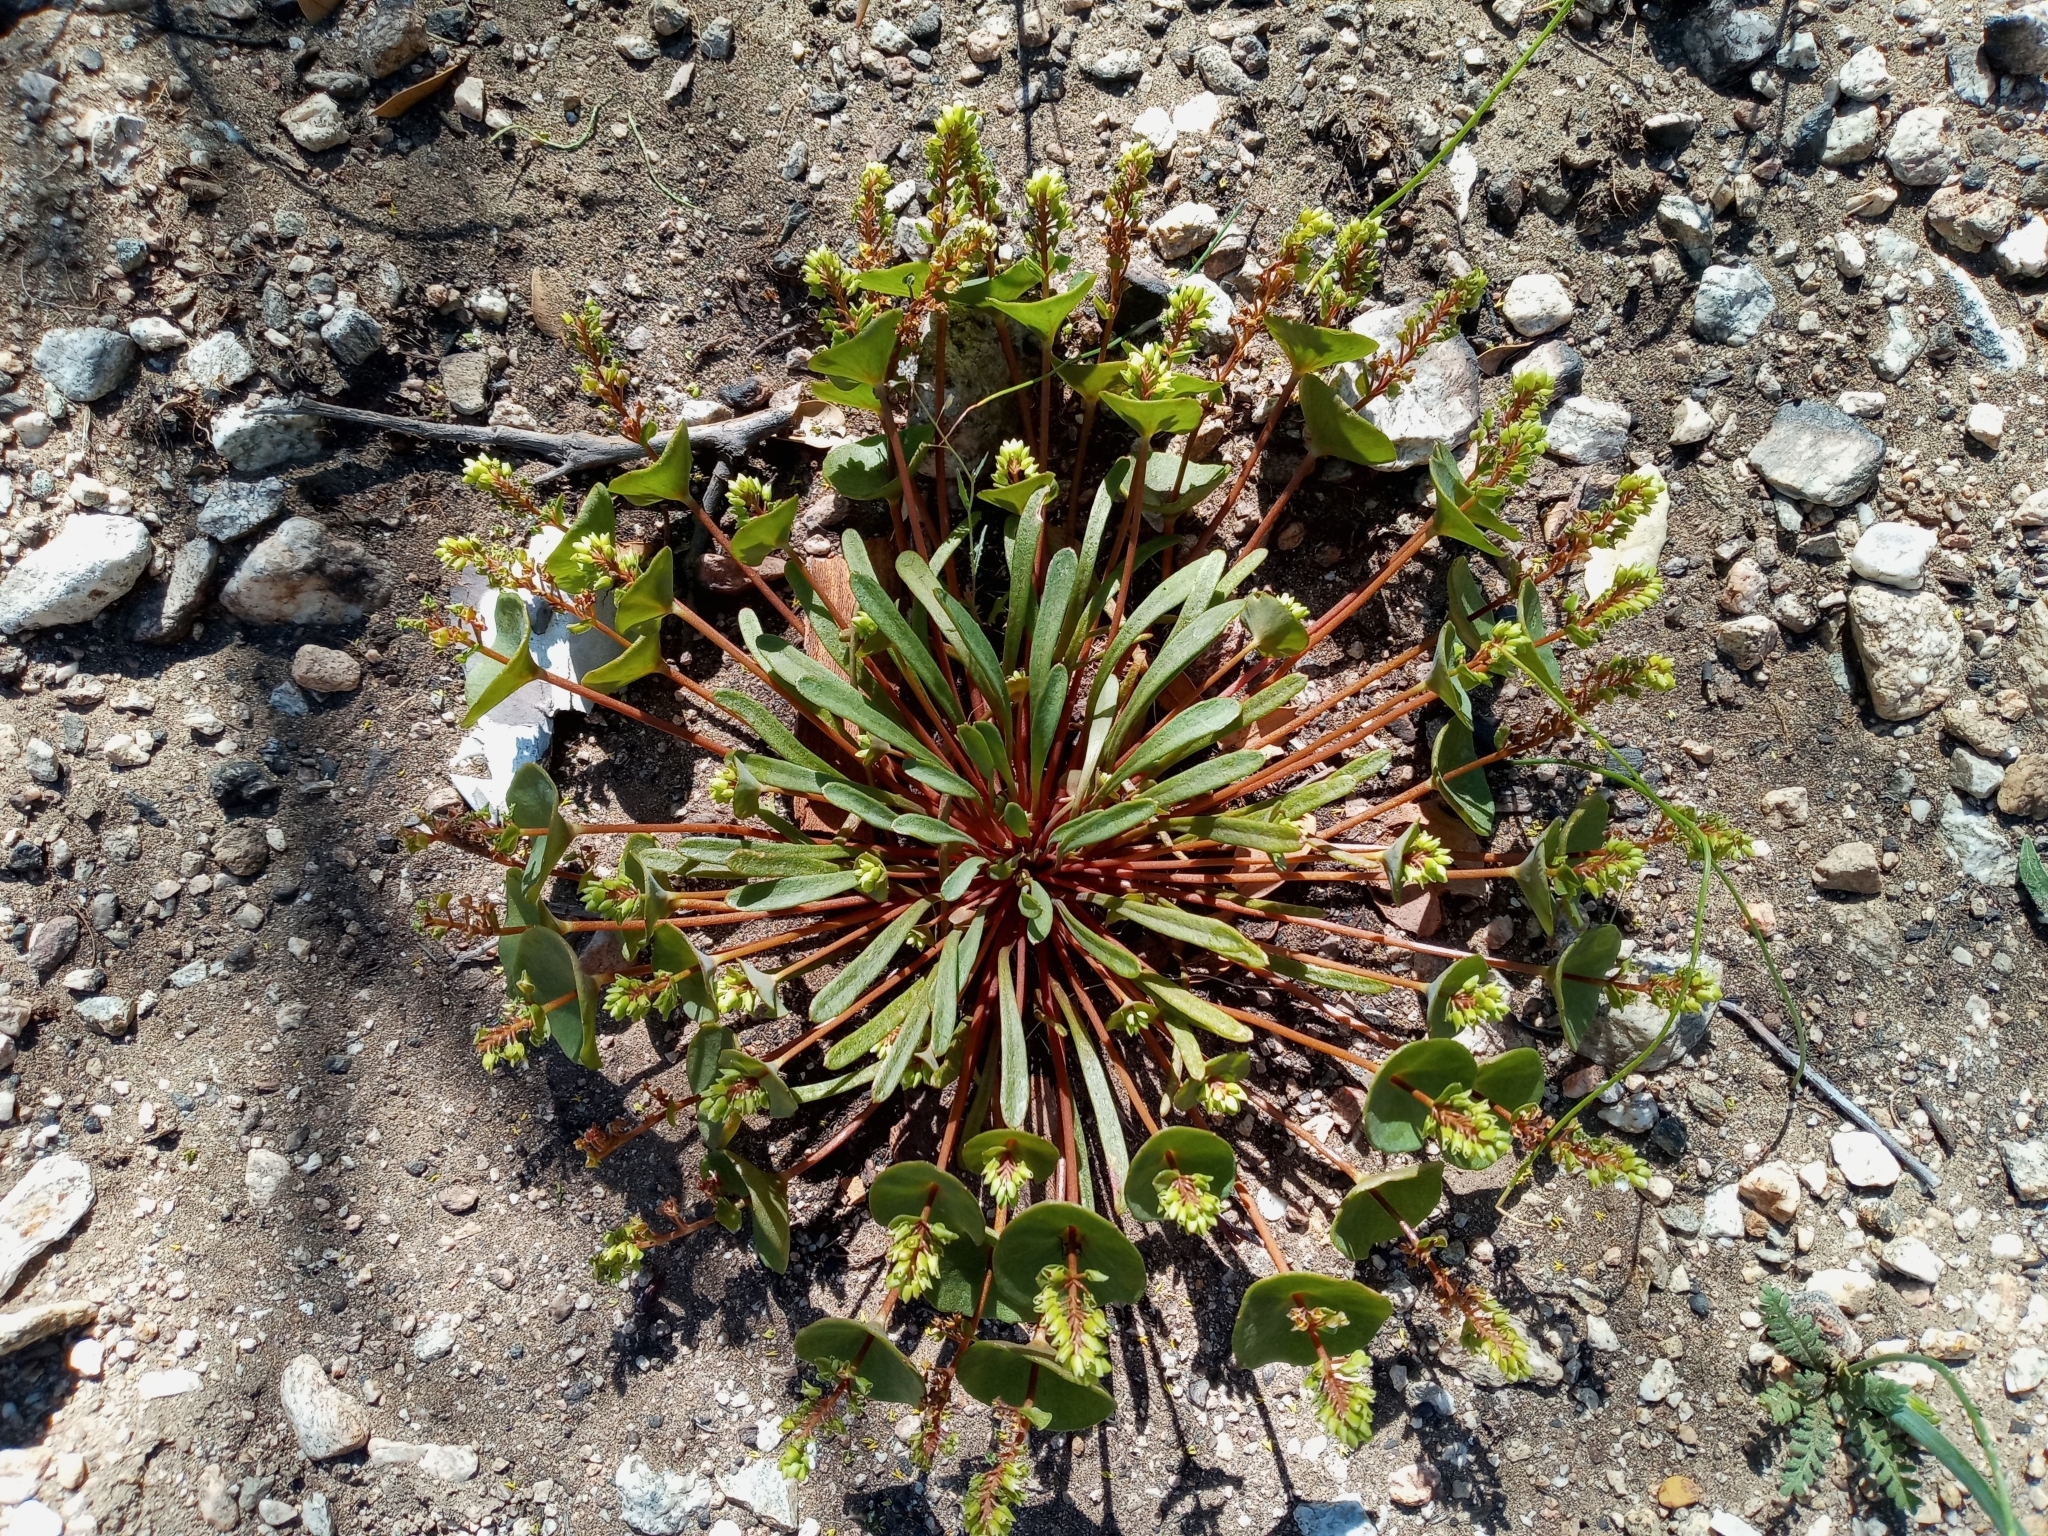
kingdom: Plantae
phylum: Tracheophyta
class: Magnoliopsida
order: Caryophyllales
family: Montiaceae
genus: Claytonia
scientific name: Claytonia parviflora
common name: Indian-lettuce
